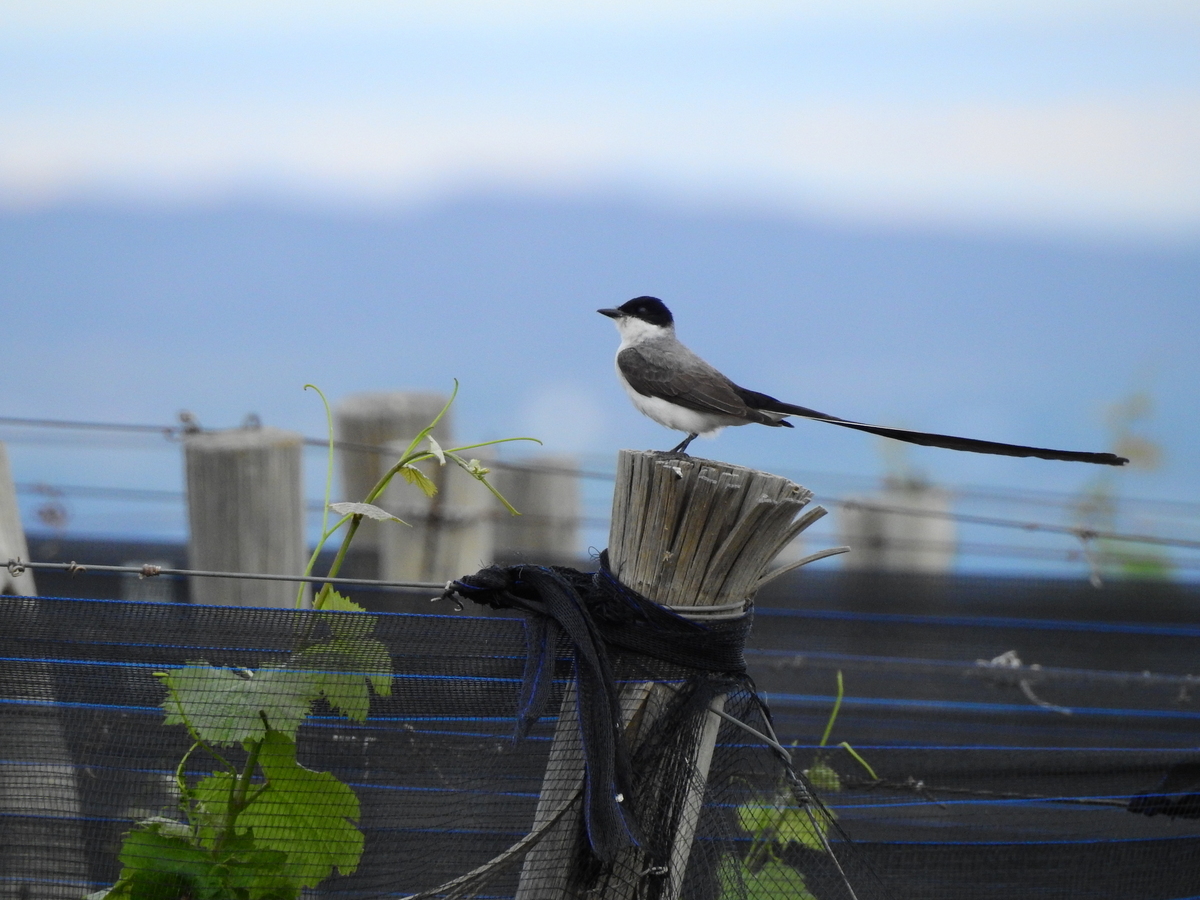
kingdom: Animalia
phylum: Chordata
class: Aves
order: Passeriformes
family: Tyrannidae
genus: Tyrannus
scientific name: Tyrannus savana
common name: Fork-tailed flycatcher
